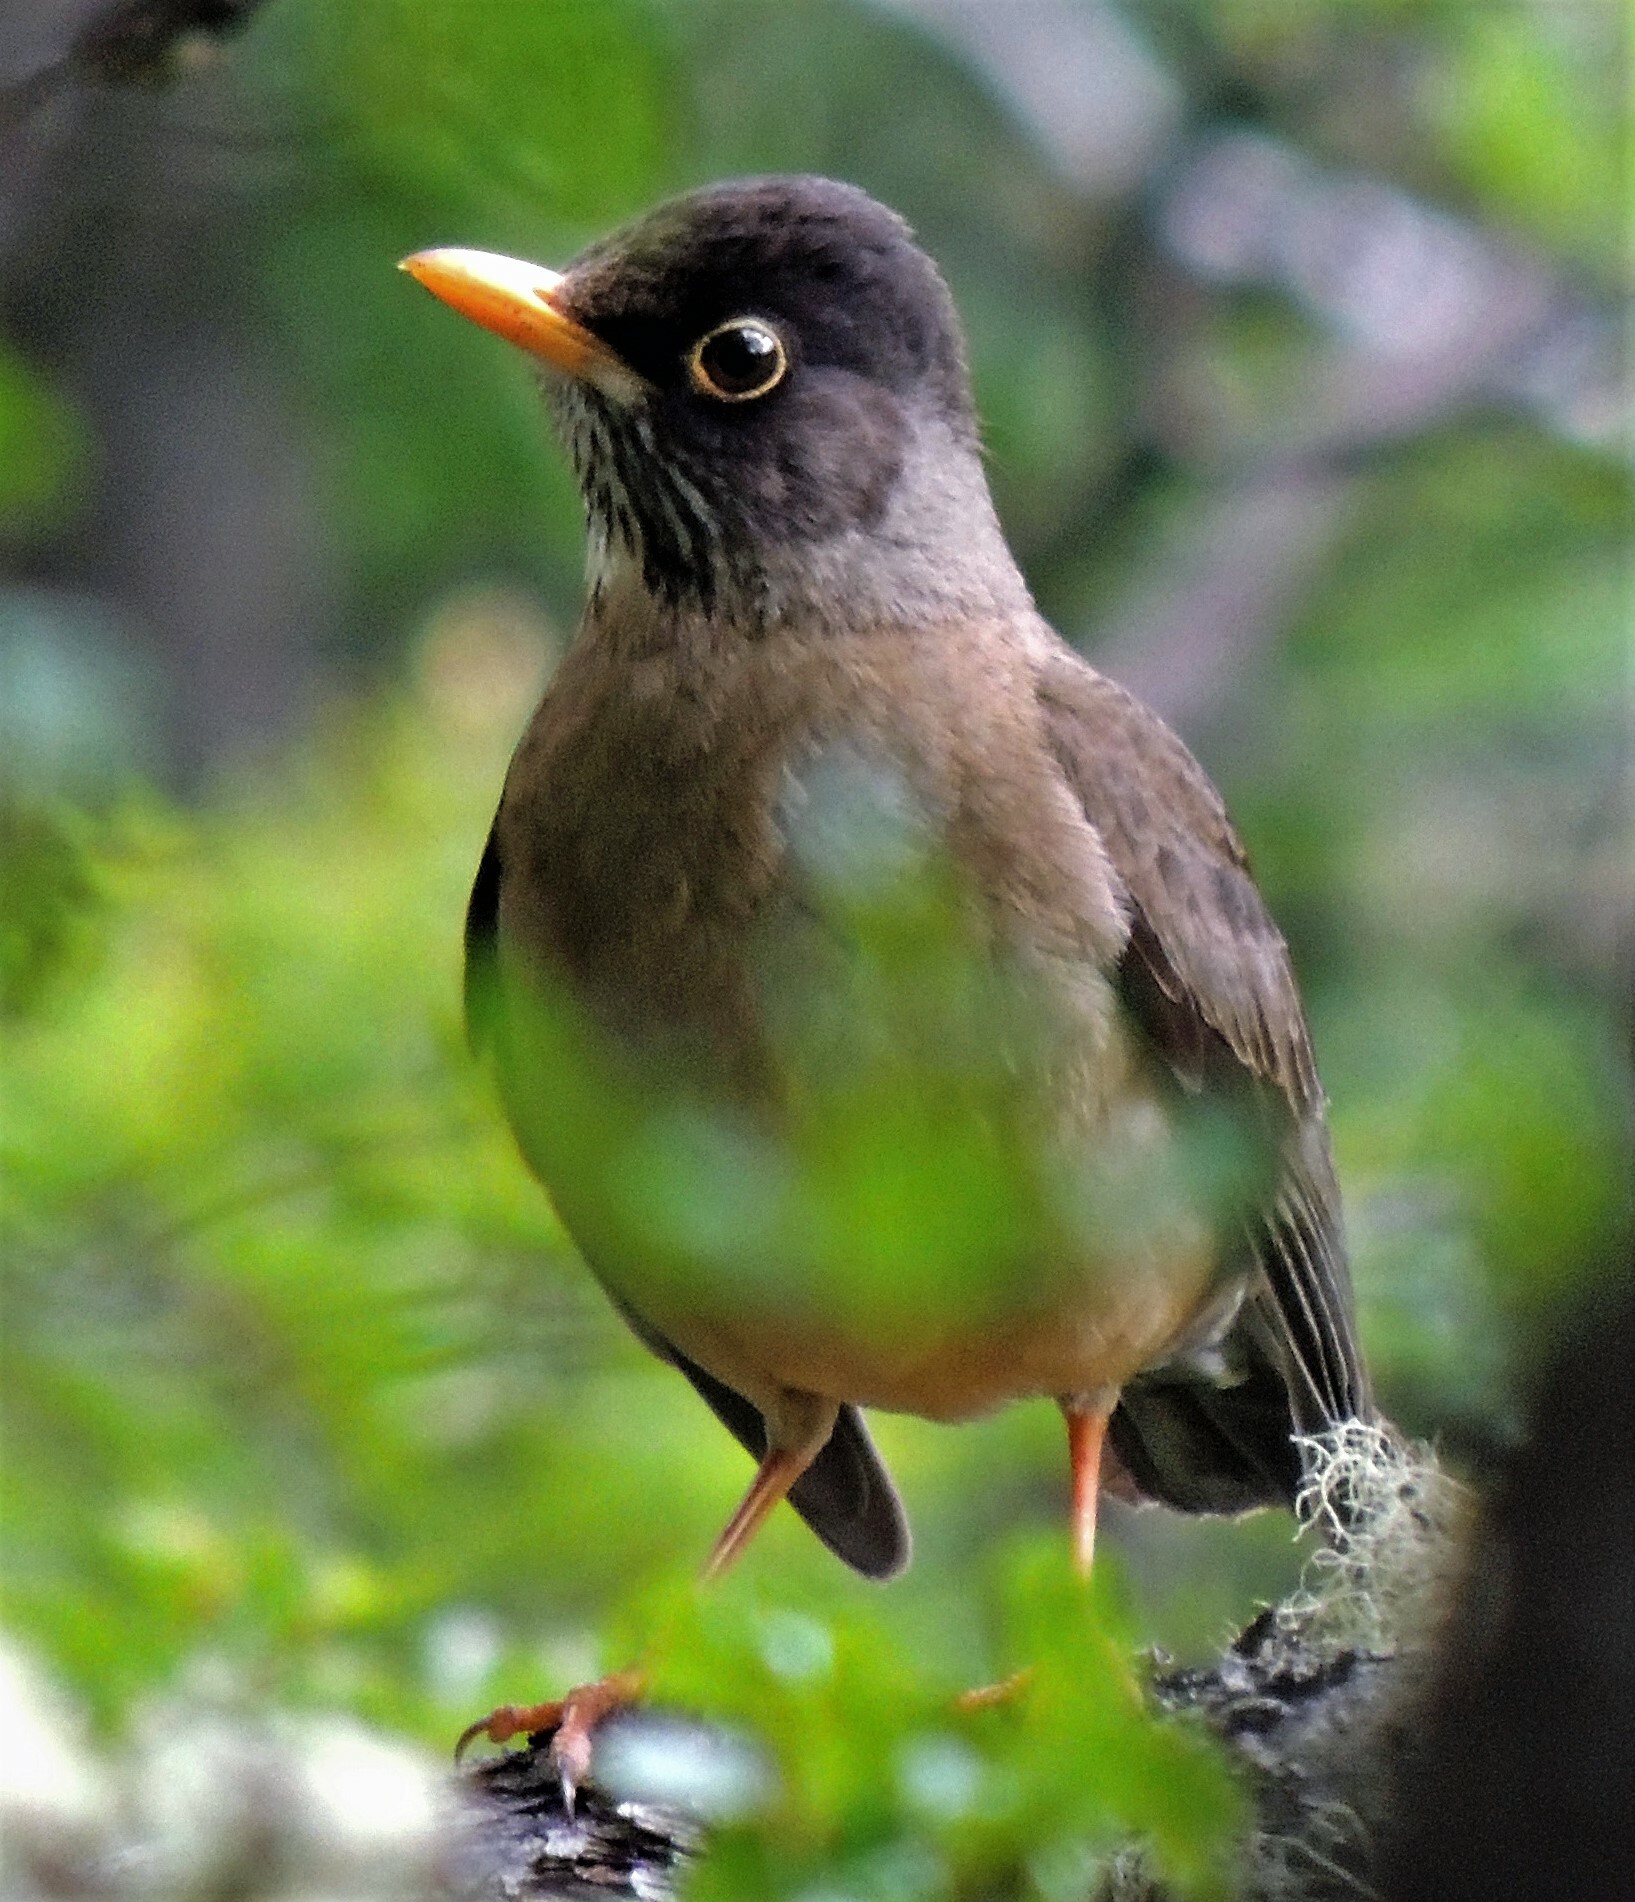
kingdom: Animalia
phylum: Chordata
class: Aves
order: Passeriformes
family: Turdidae
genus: Turdus
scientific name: Turdus falcklandii
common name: Austral thrush
